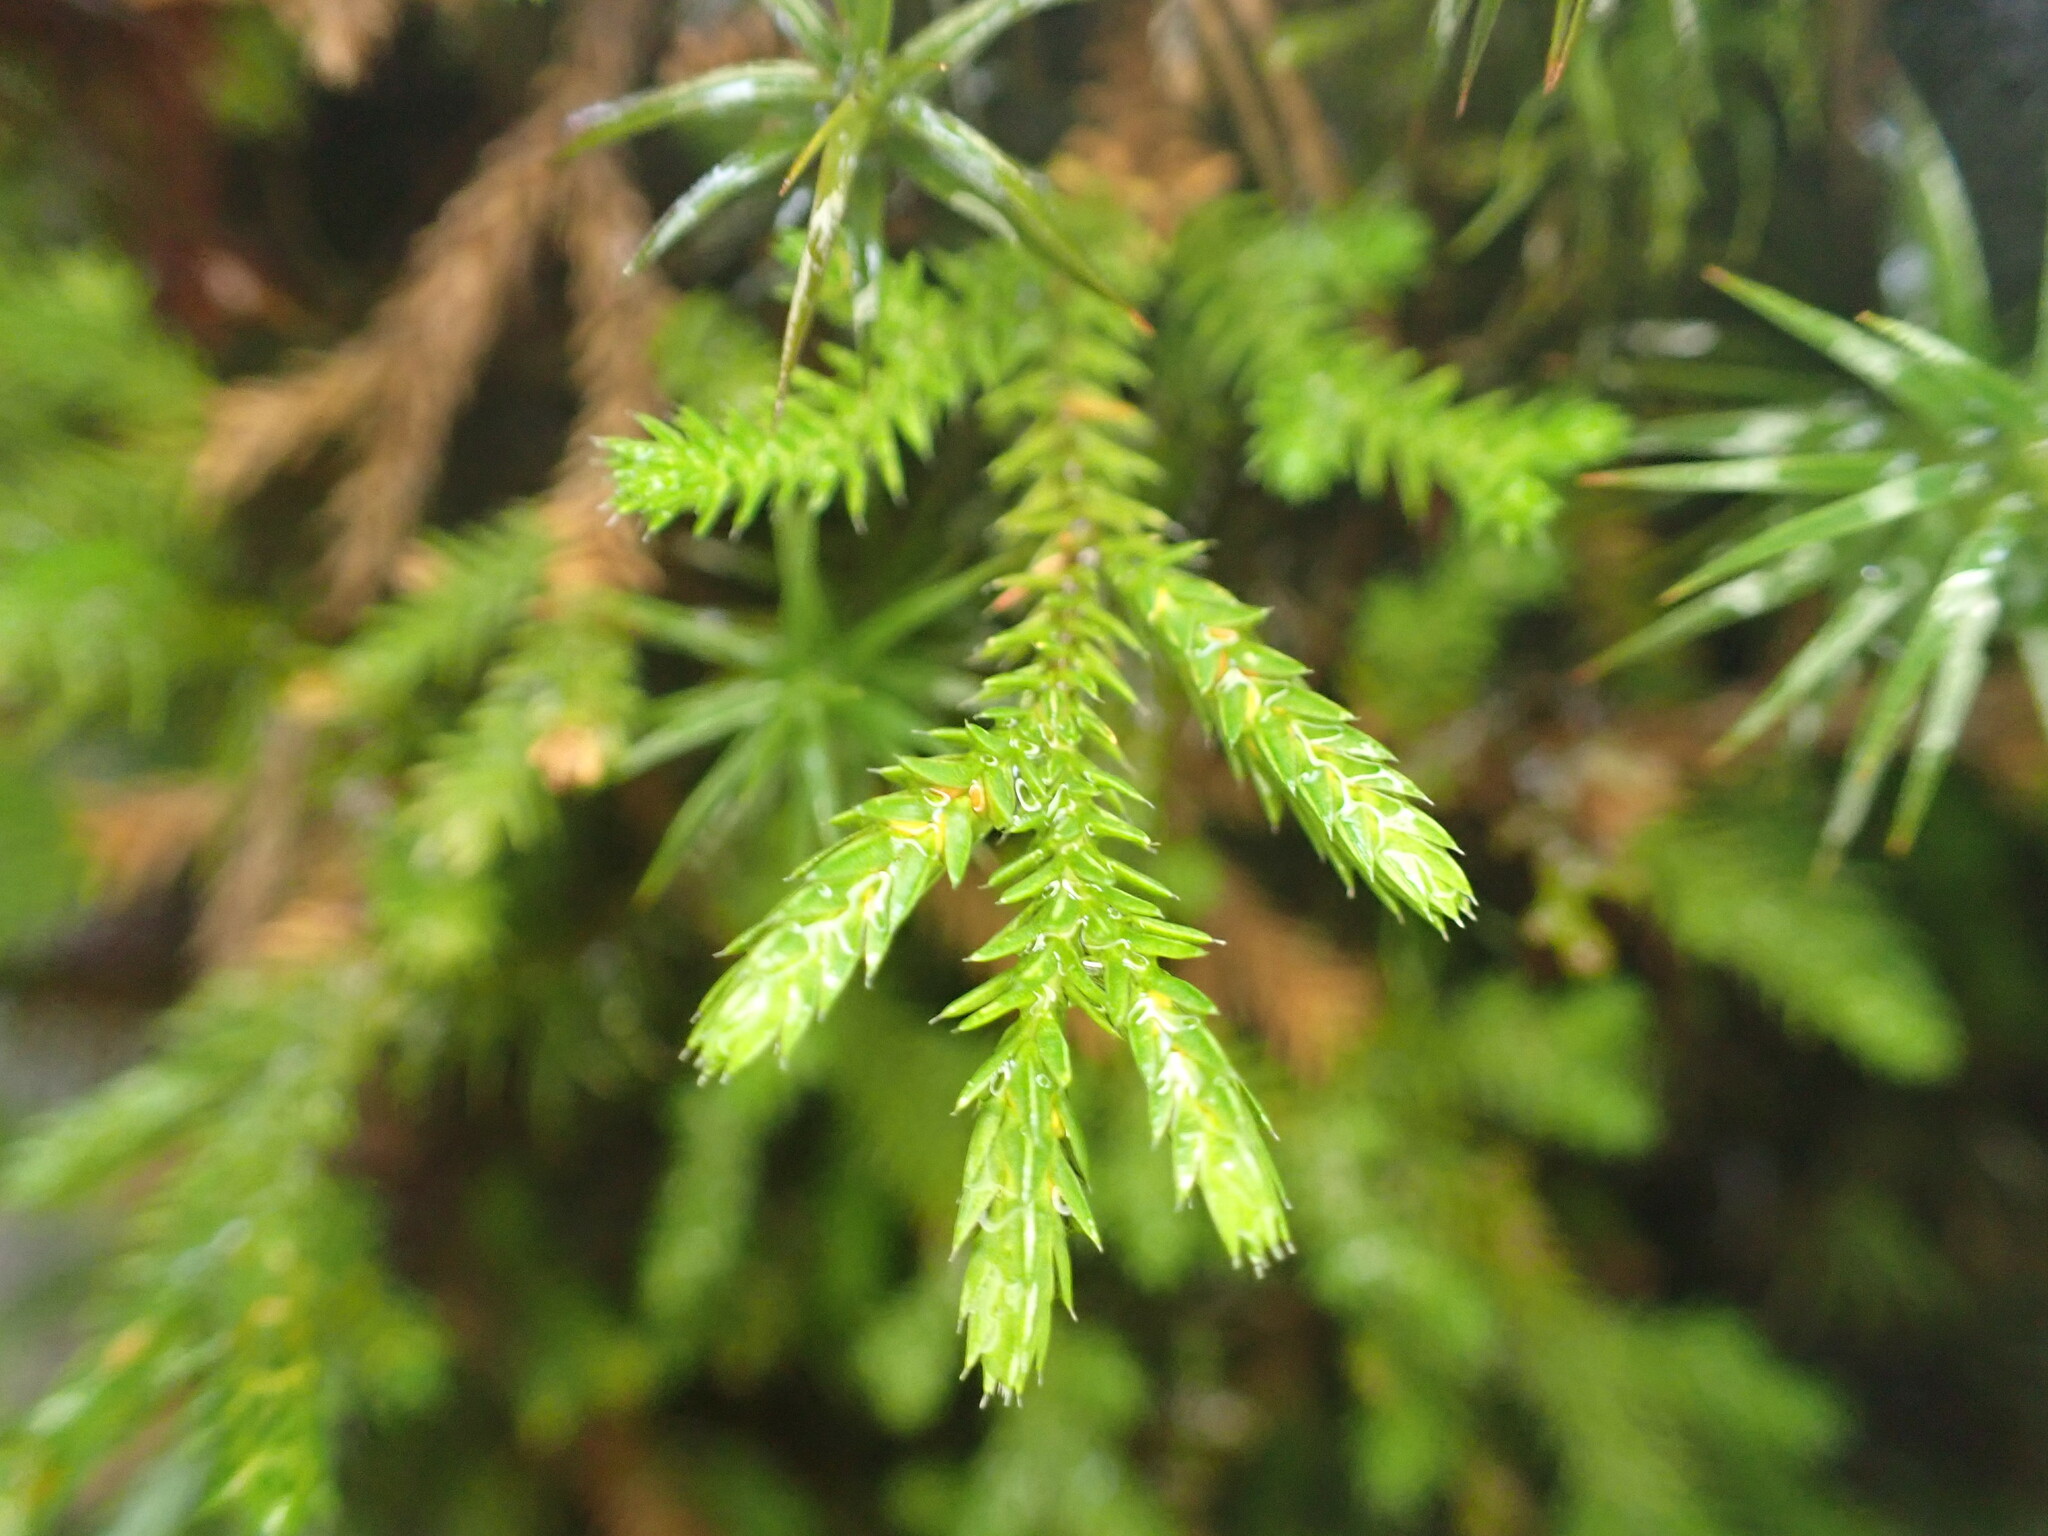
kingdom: Plantae
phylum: Tracheophyta
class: Lycopodiopsida
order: Selaginellales
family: Selaginellaceae
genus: Selaginella
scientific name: Selaginella wallacei
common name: Wallace's selaginella
